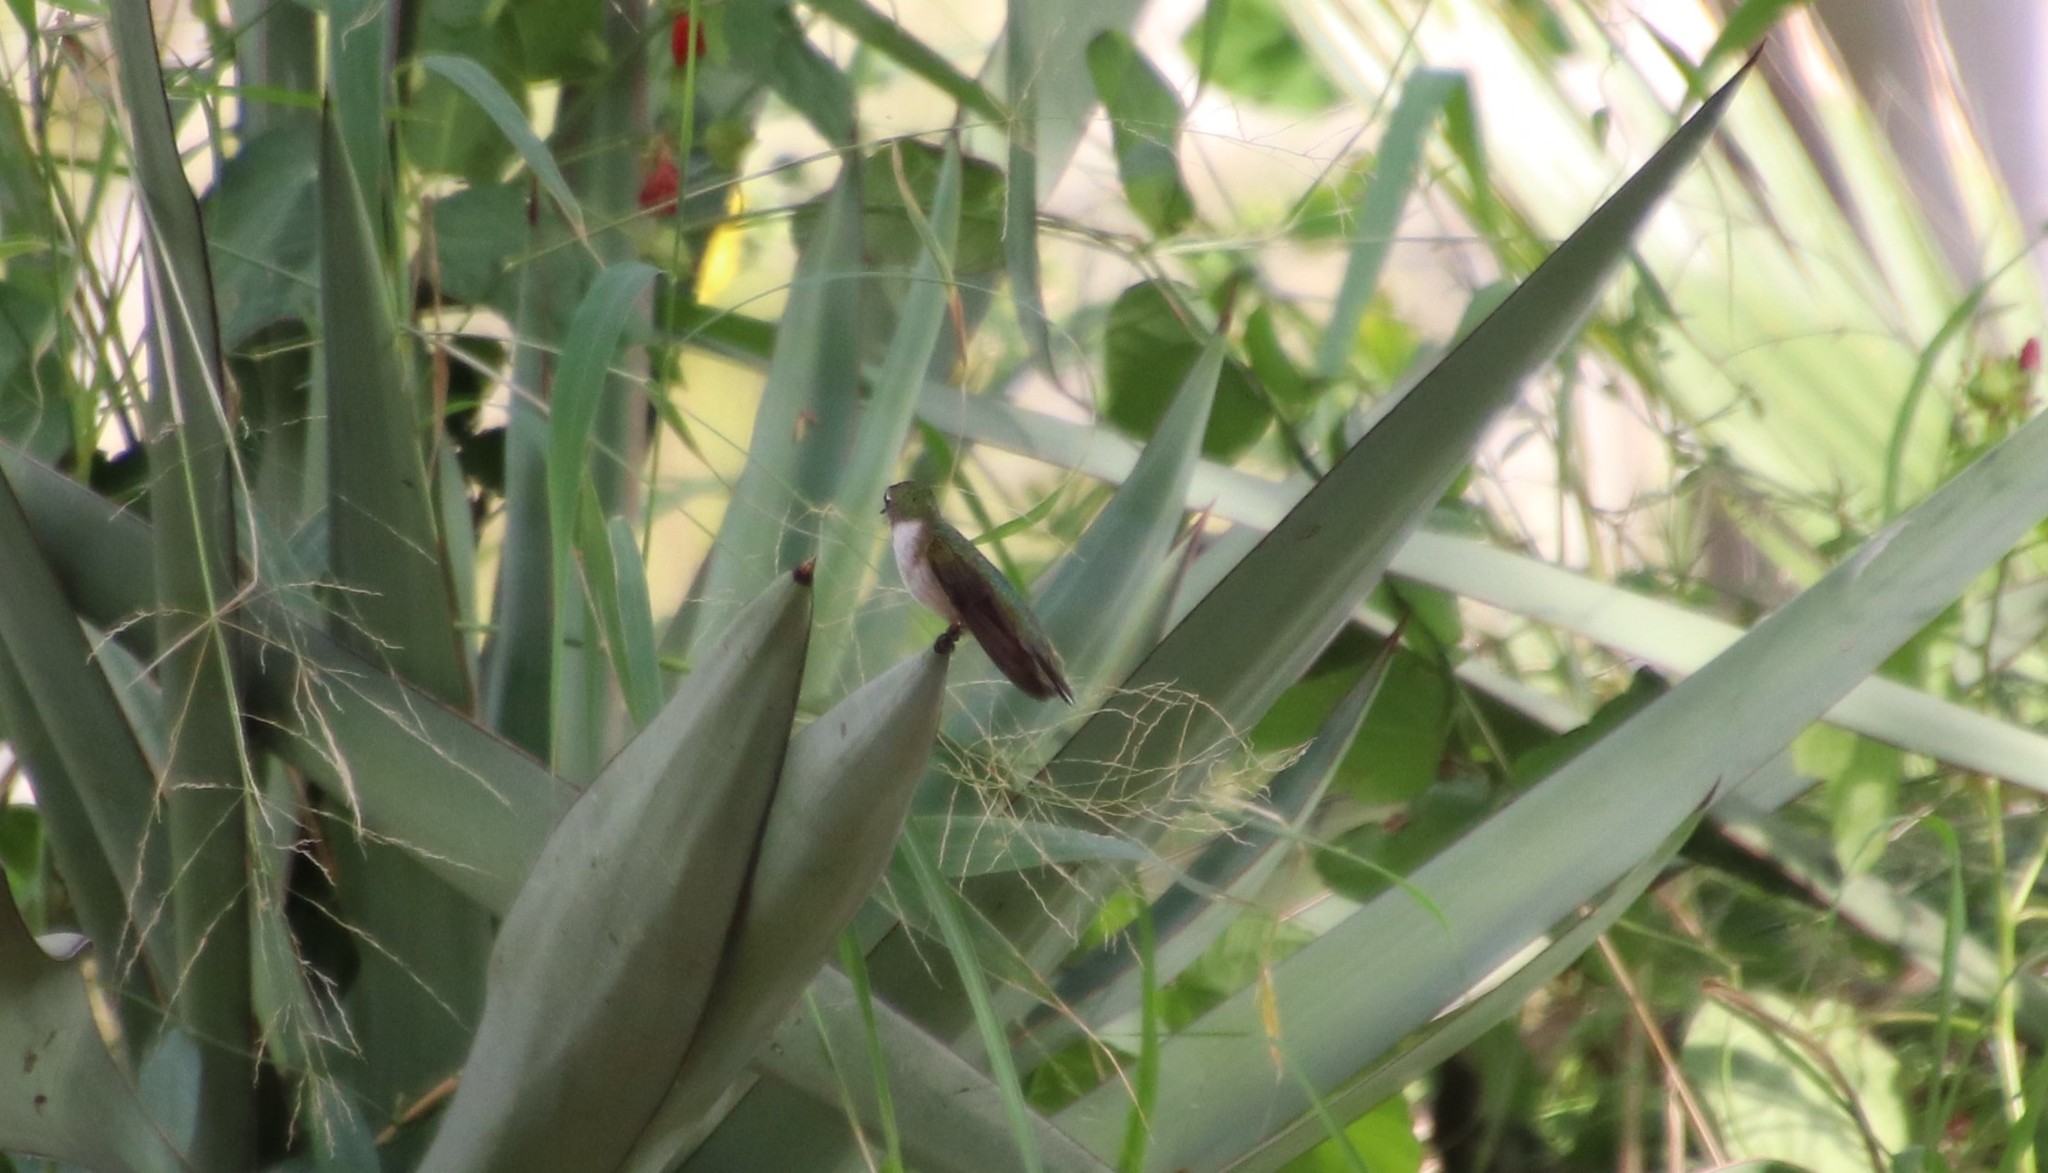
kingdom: Animalia
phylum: Chordata
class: Aves
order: Apodiformes
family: Trochilidae
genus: Archilochus
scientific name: Archilochus colubris
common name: Ruby-throated hummingbird
